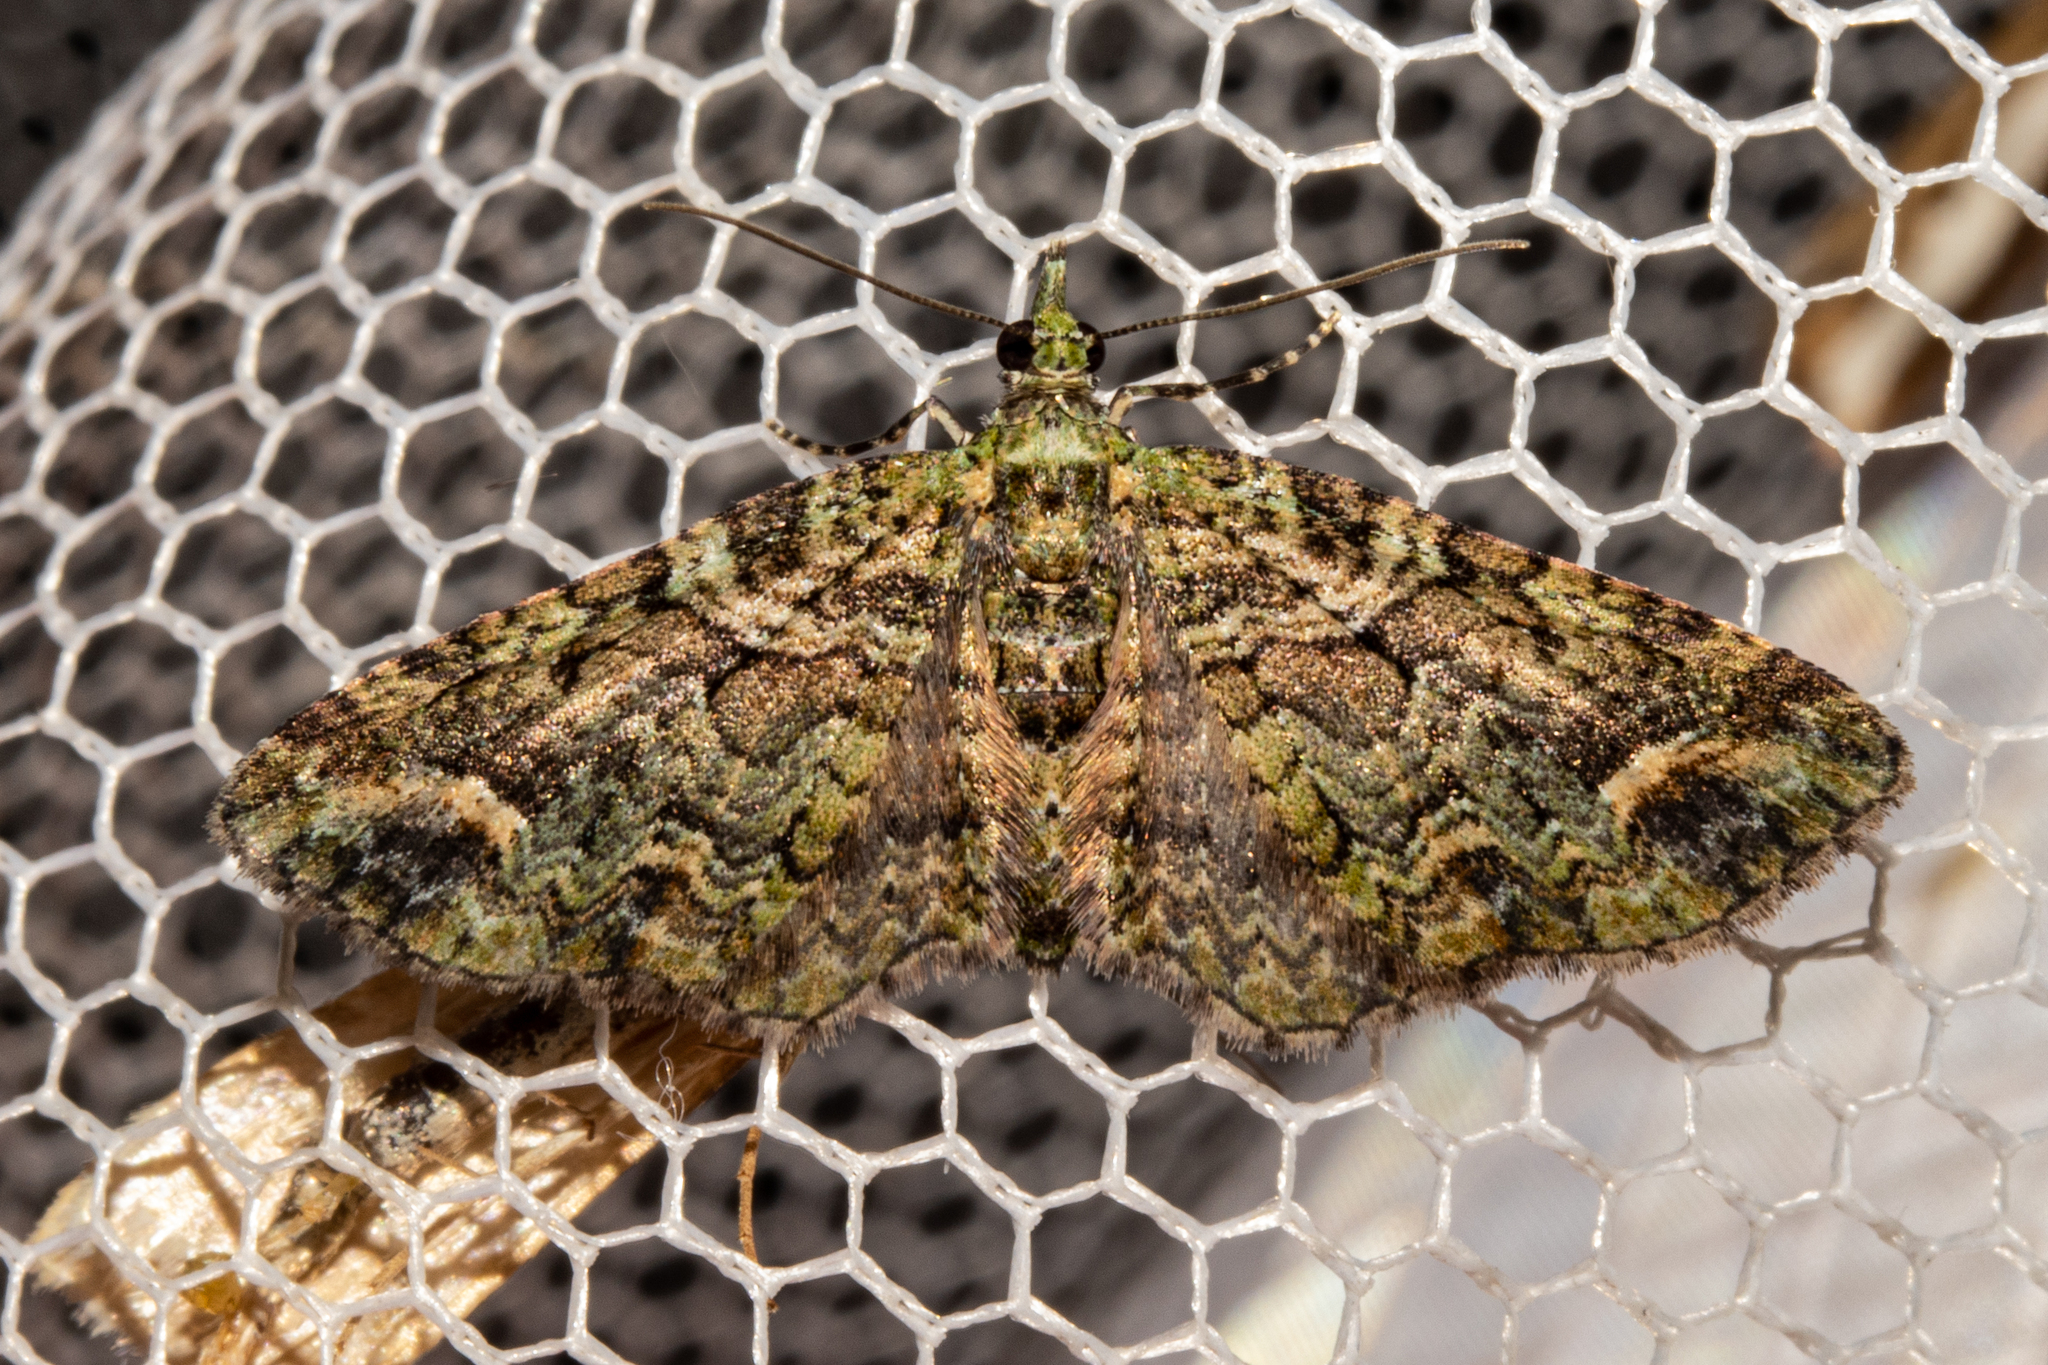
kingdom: Animalia
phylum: Arthropoda
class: Insecta
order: Lepidoptera
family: Geometridae
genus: Idaea
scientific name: Idaea mutanda
